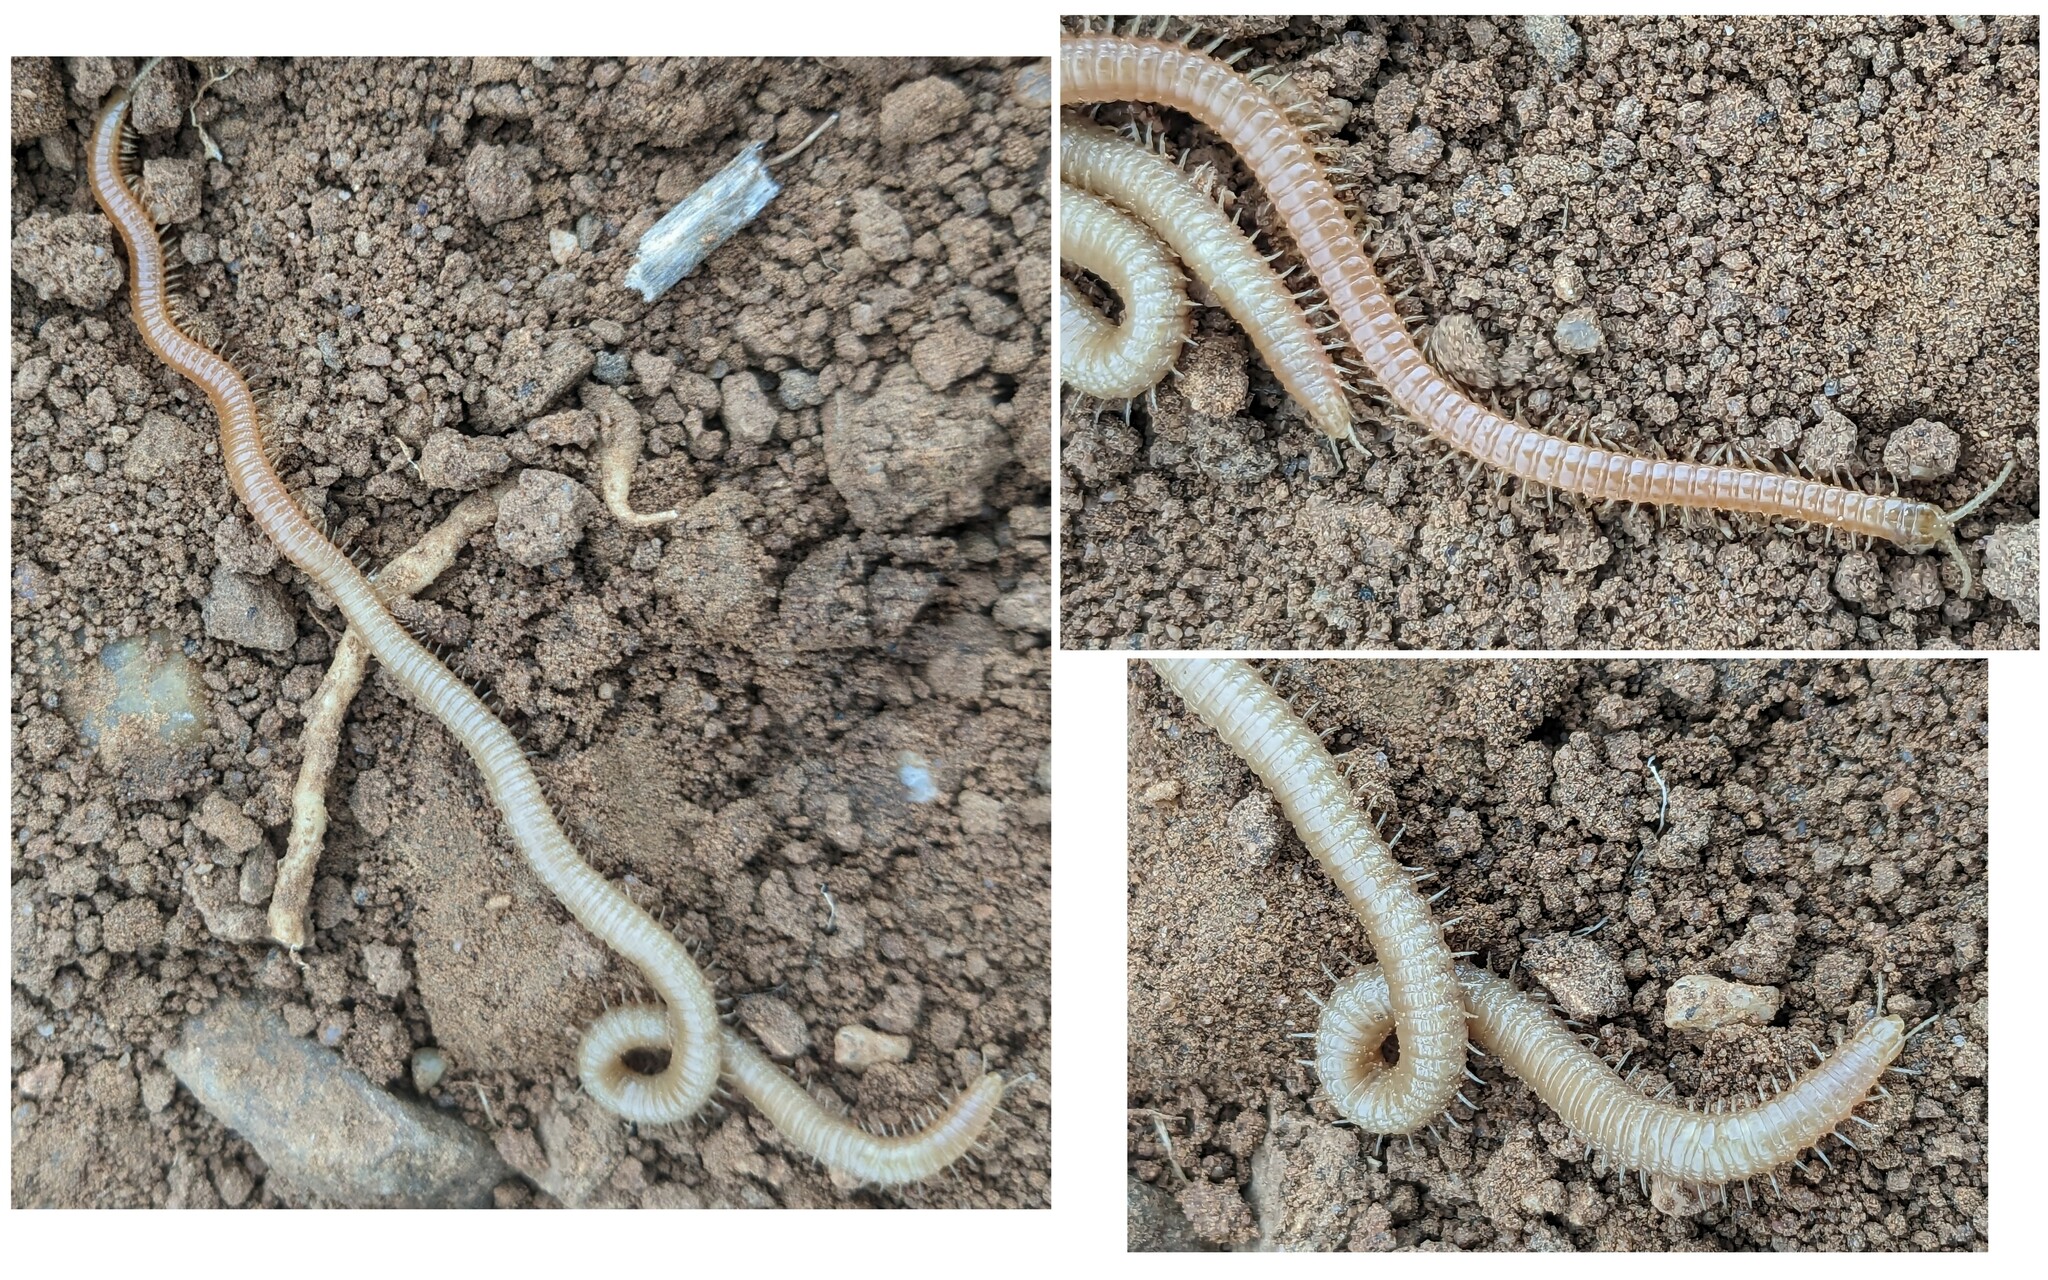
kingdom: Animalia
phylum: Arthropoda
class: Chilopoda
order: Geophilomorpha
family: Himantariidae
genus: Himantarium
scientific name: Himantarium gabrielis
